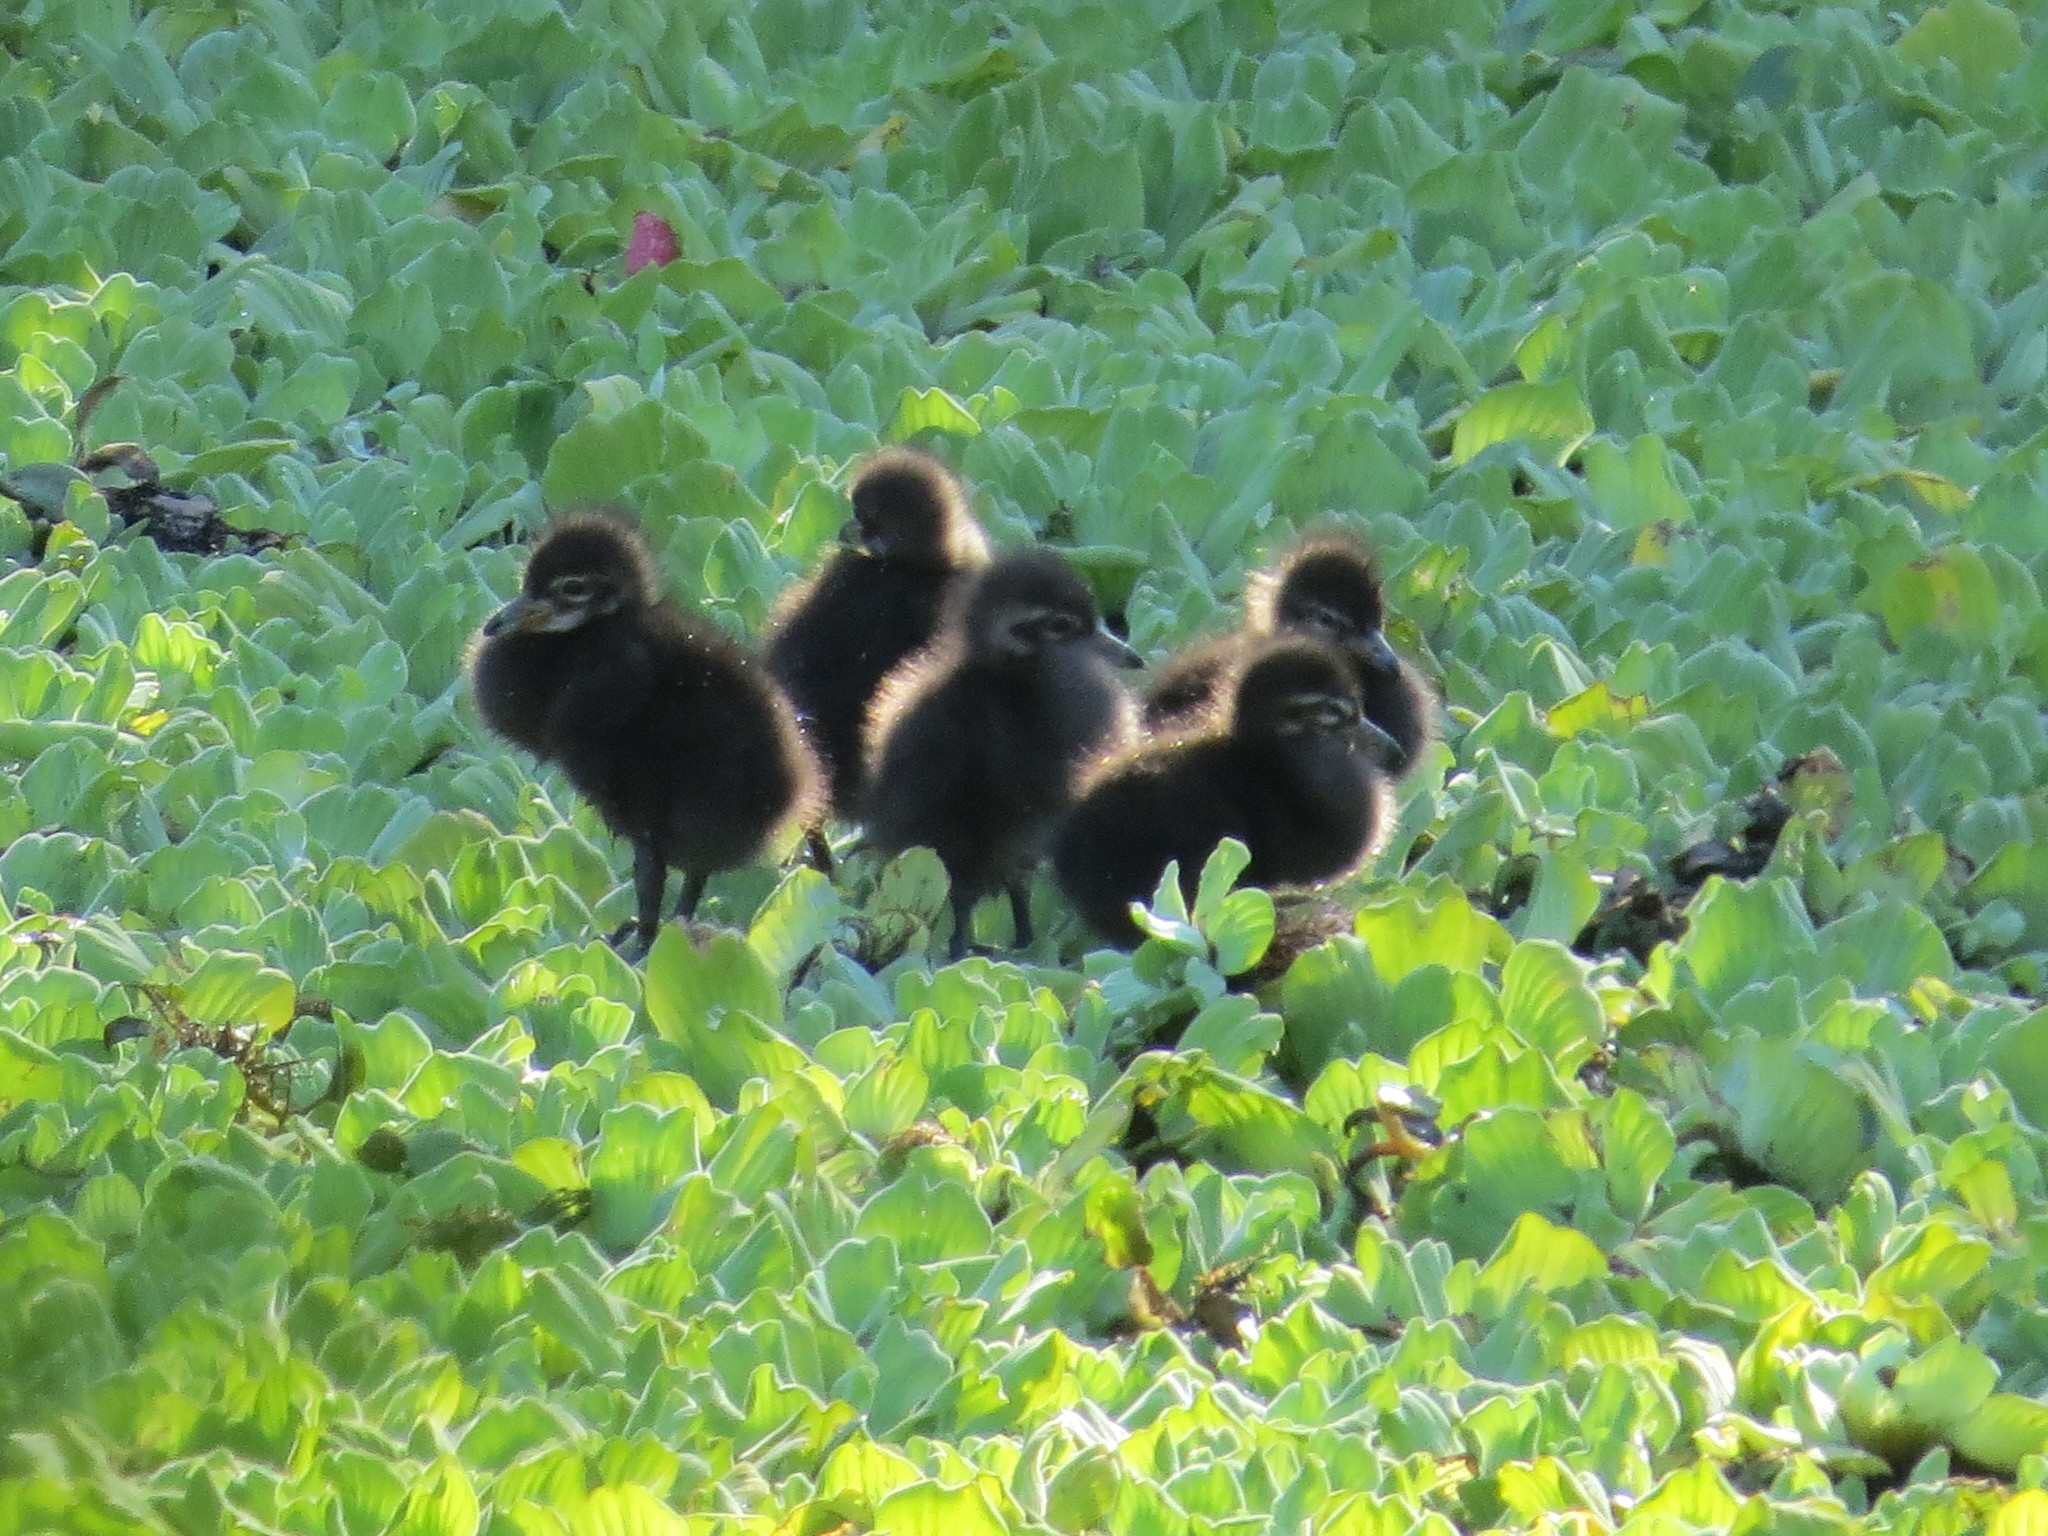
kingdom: Animalia
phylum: Chordata
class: Aves
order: Gruiformes
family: Aramidae
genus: Aramus
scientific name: Aramus guarauna
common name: Limpkin
